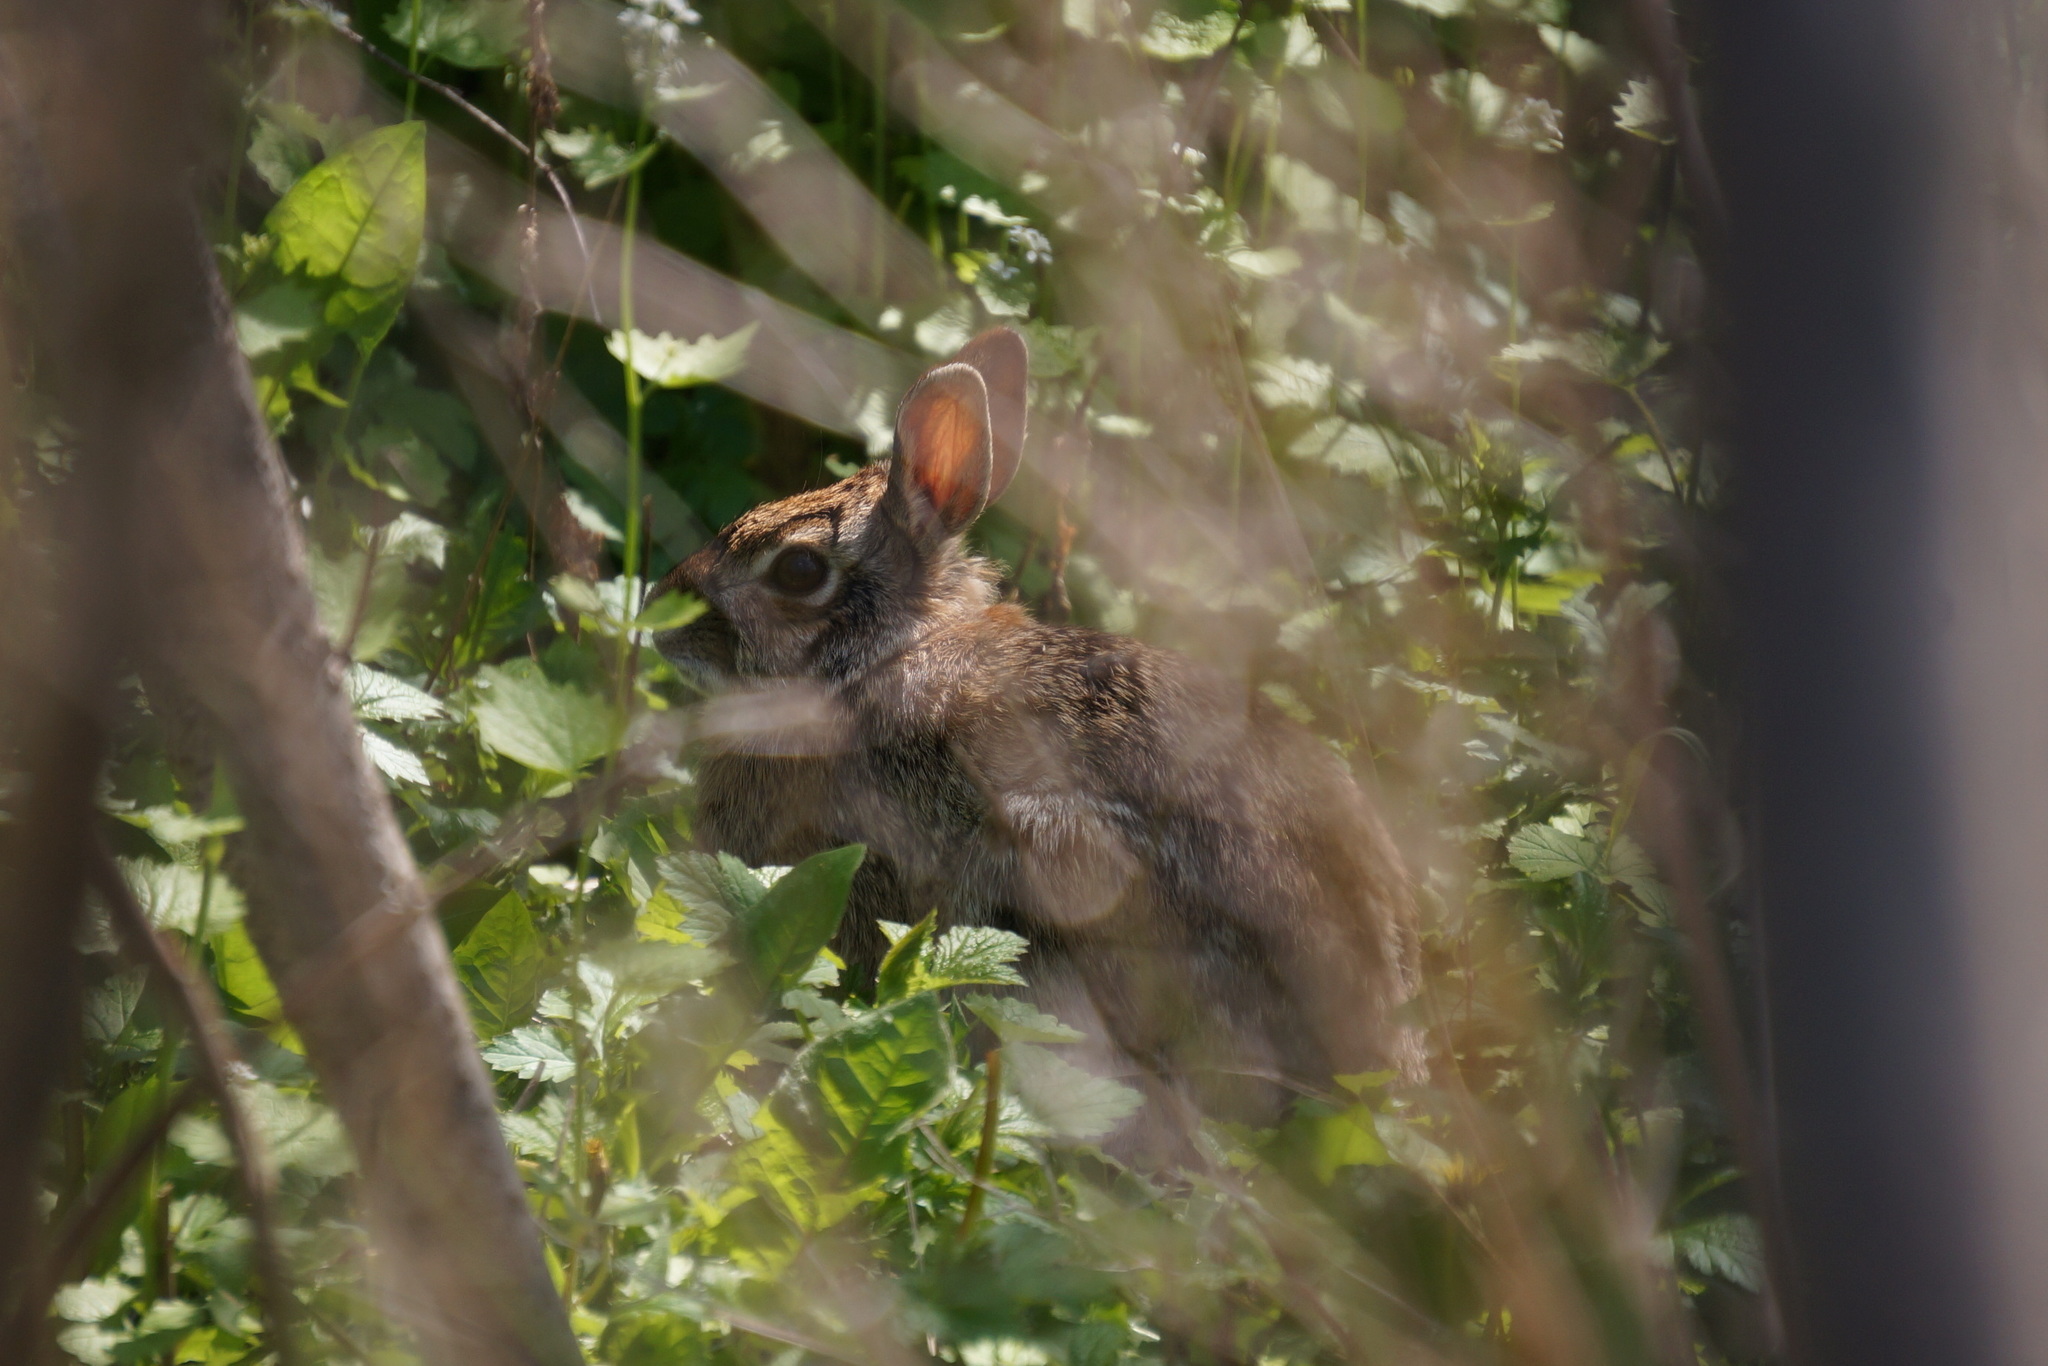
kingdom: Animalia
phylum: Chordata
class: Mammalia
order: Lagomorpha
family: Leporidae
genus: Sylvilagus
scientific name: Sylvilagus floridanus
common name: Eastern cottontail
